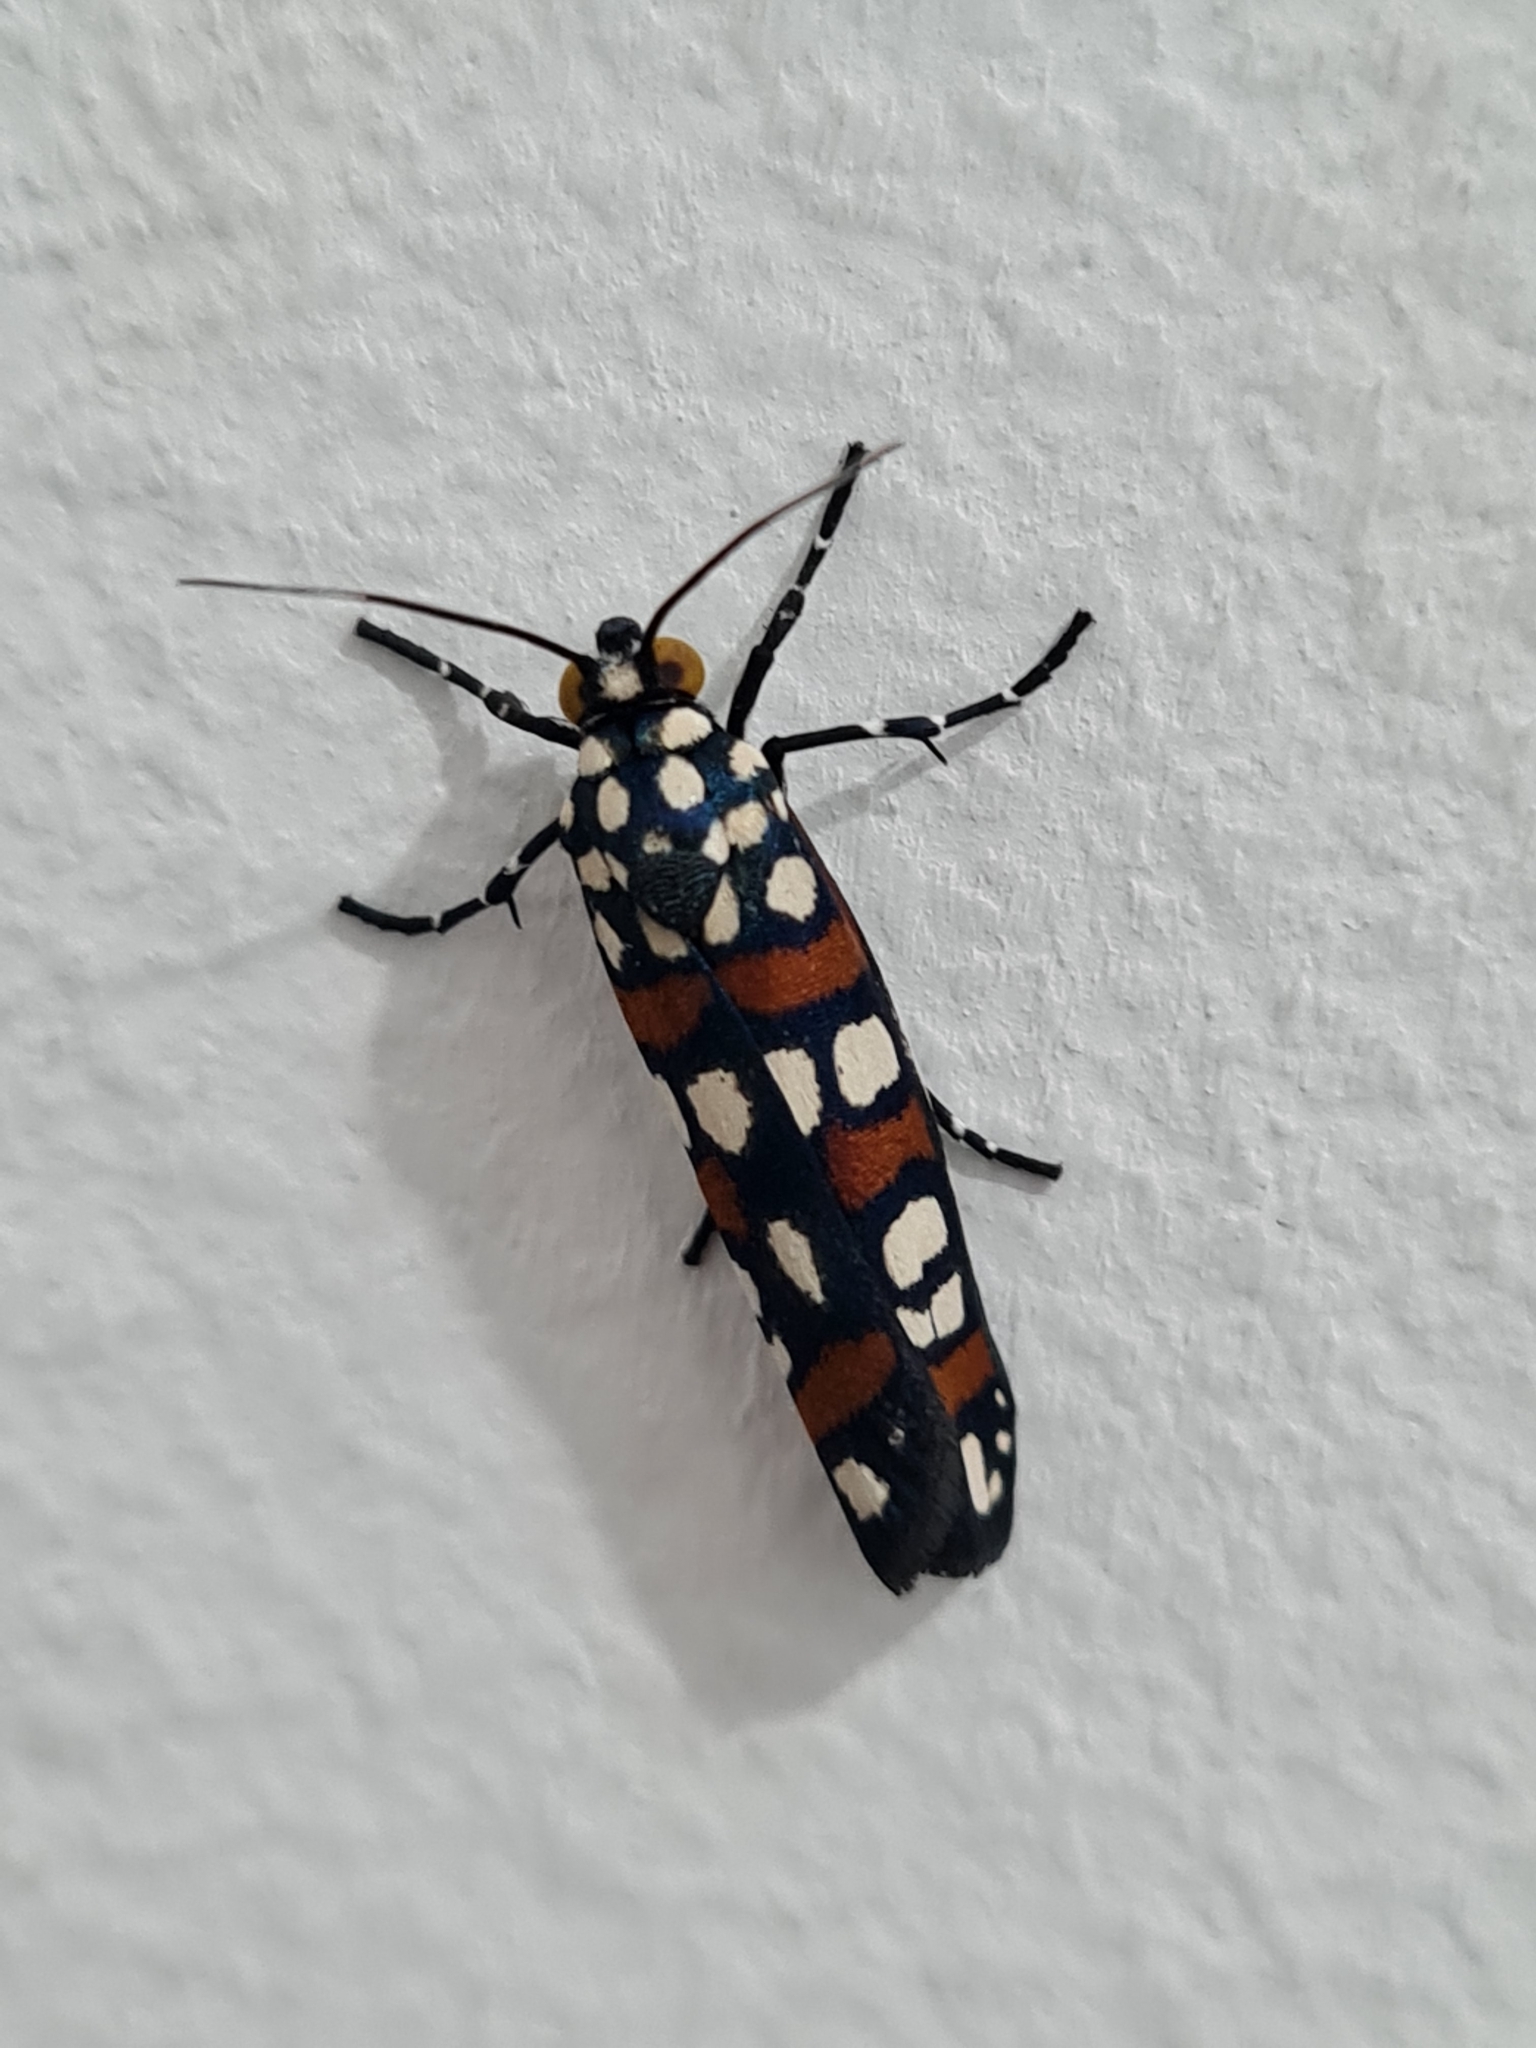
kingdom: Animalia
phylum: Arthropoda
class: Insecta
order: Lepidoptera
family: Noctuidae
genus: Cydosia
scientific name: Cydosia curvinella
